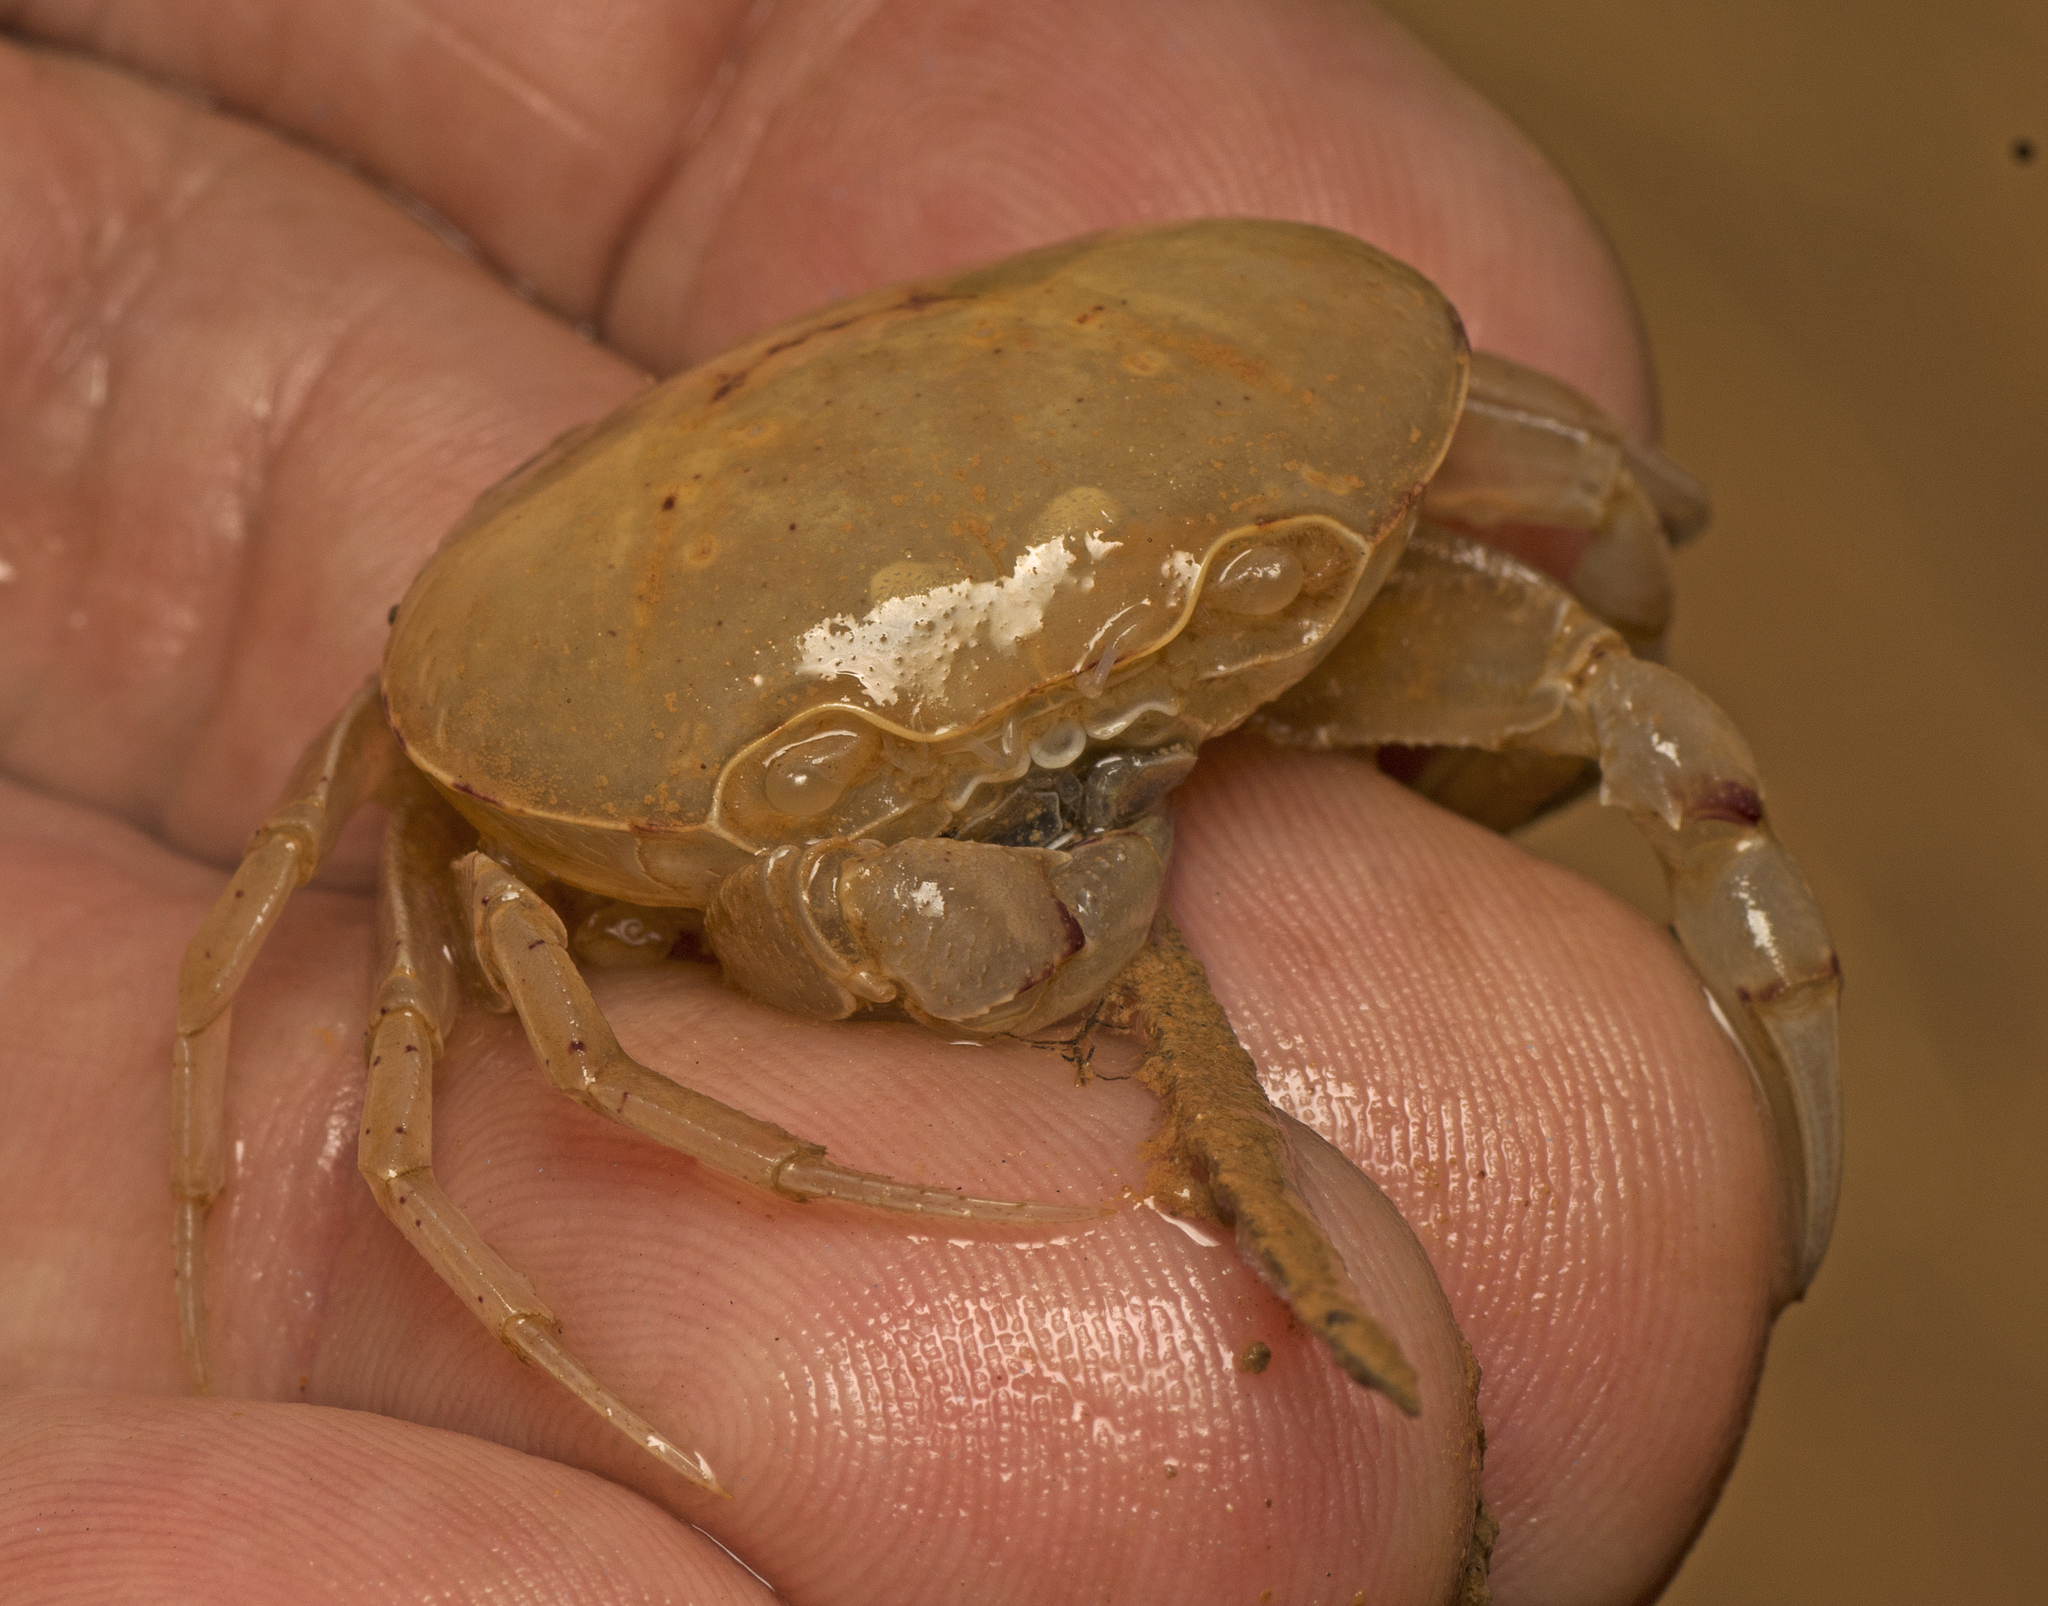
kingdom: Animalia
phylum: Arthropoda
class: Malacostraca
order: Decapoda
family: Gecarcinucidae
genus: Austrothelphusa
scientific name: Austrothelphusa transversa
